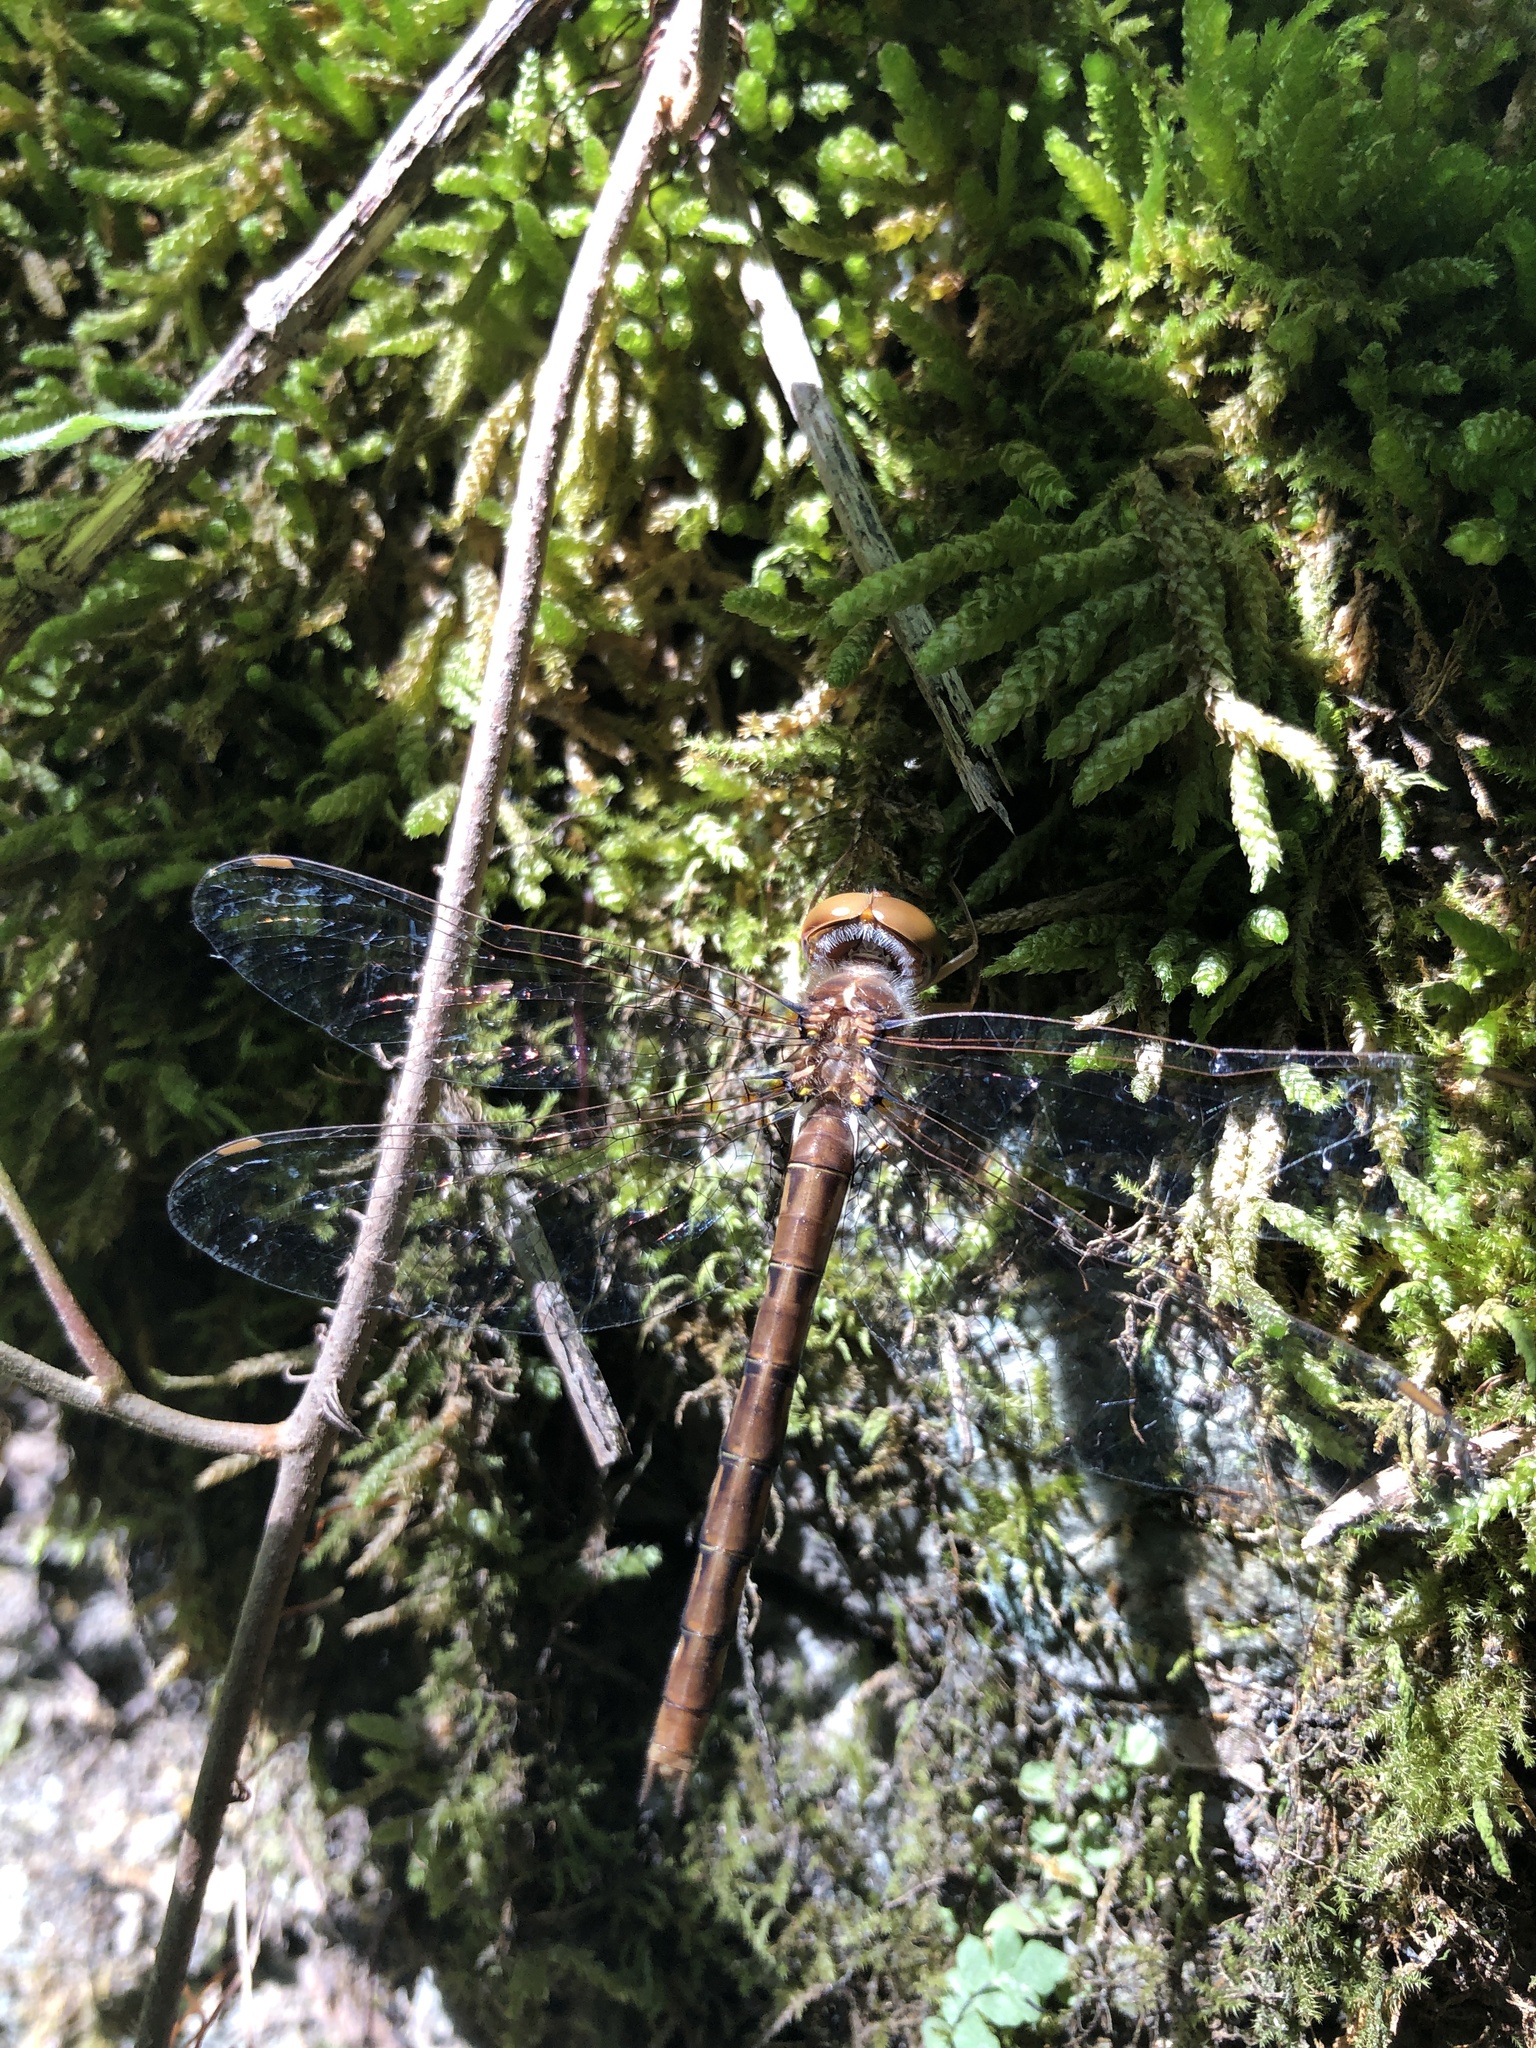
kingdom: Animalia
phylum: Arthropoda
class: Insecta
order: Odonata
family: Corduliidae
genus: Neurocordulia
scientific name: Neurocordulia virginiensis
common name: Cinnamon shadowdragon
